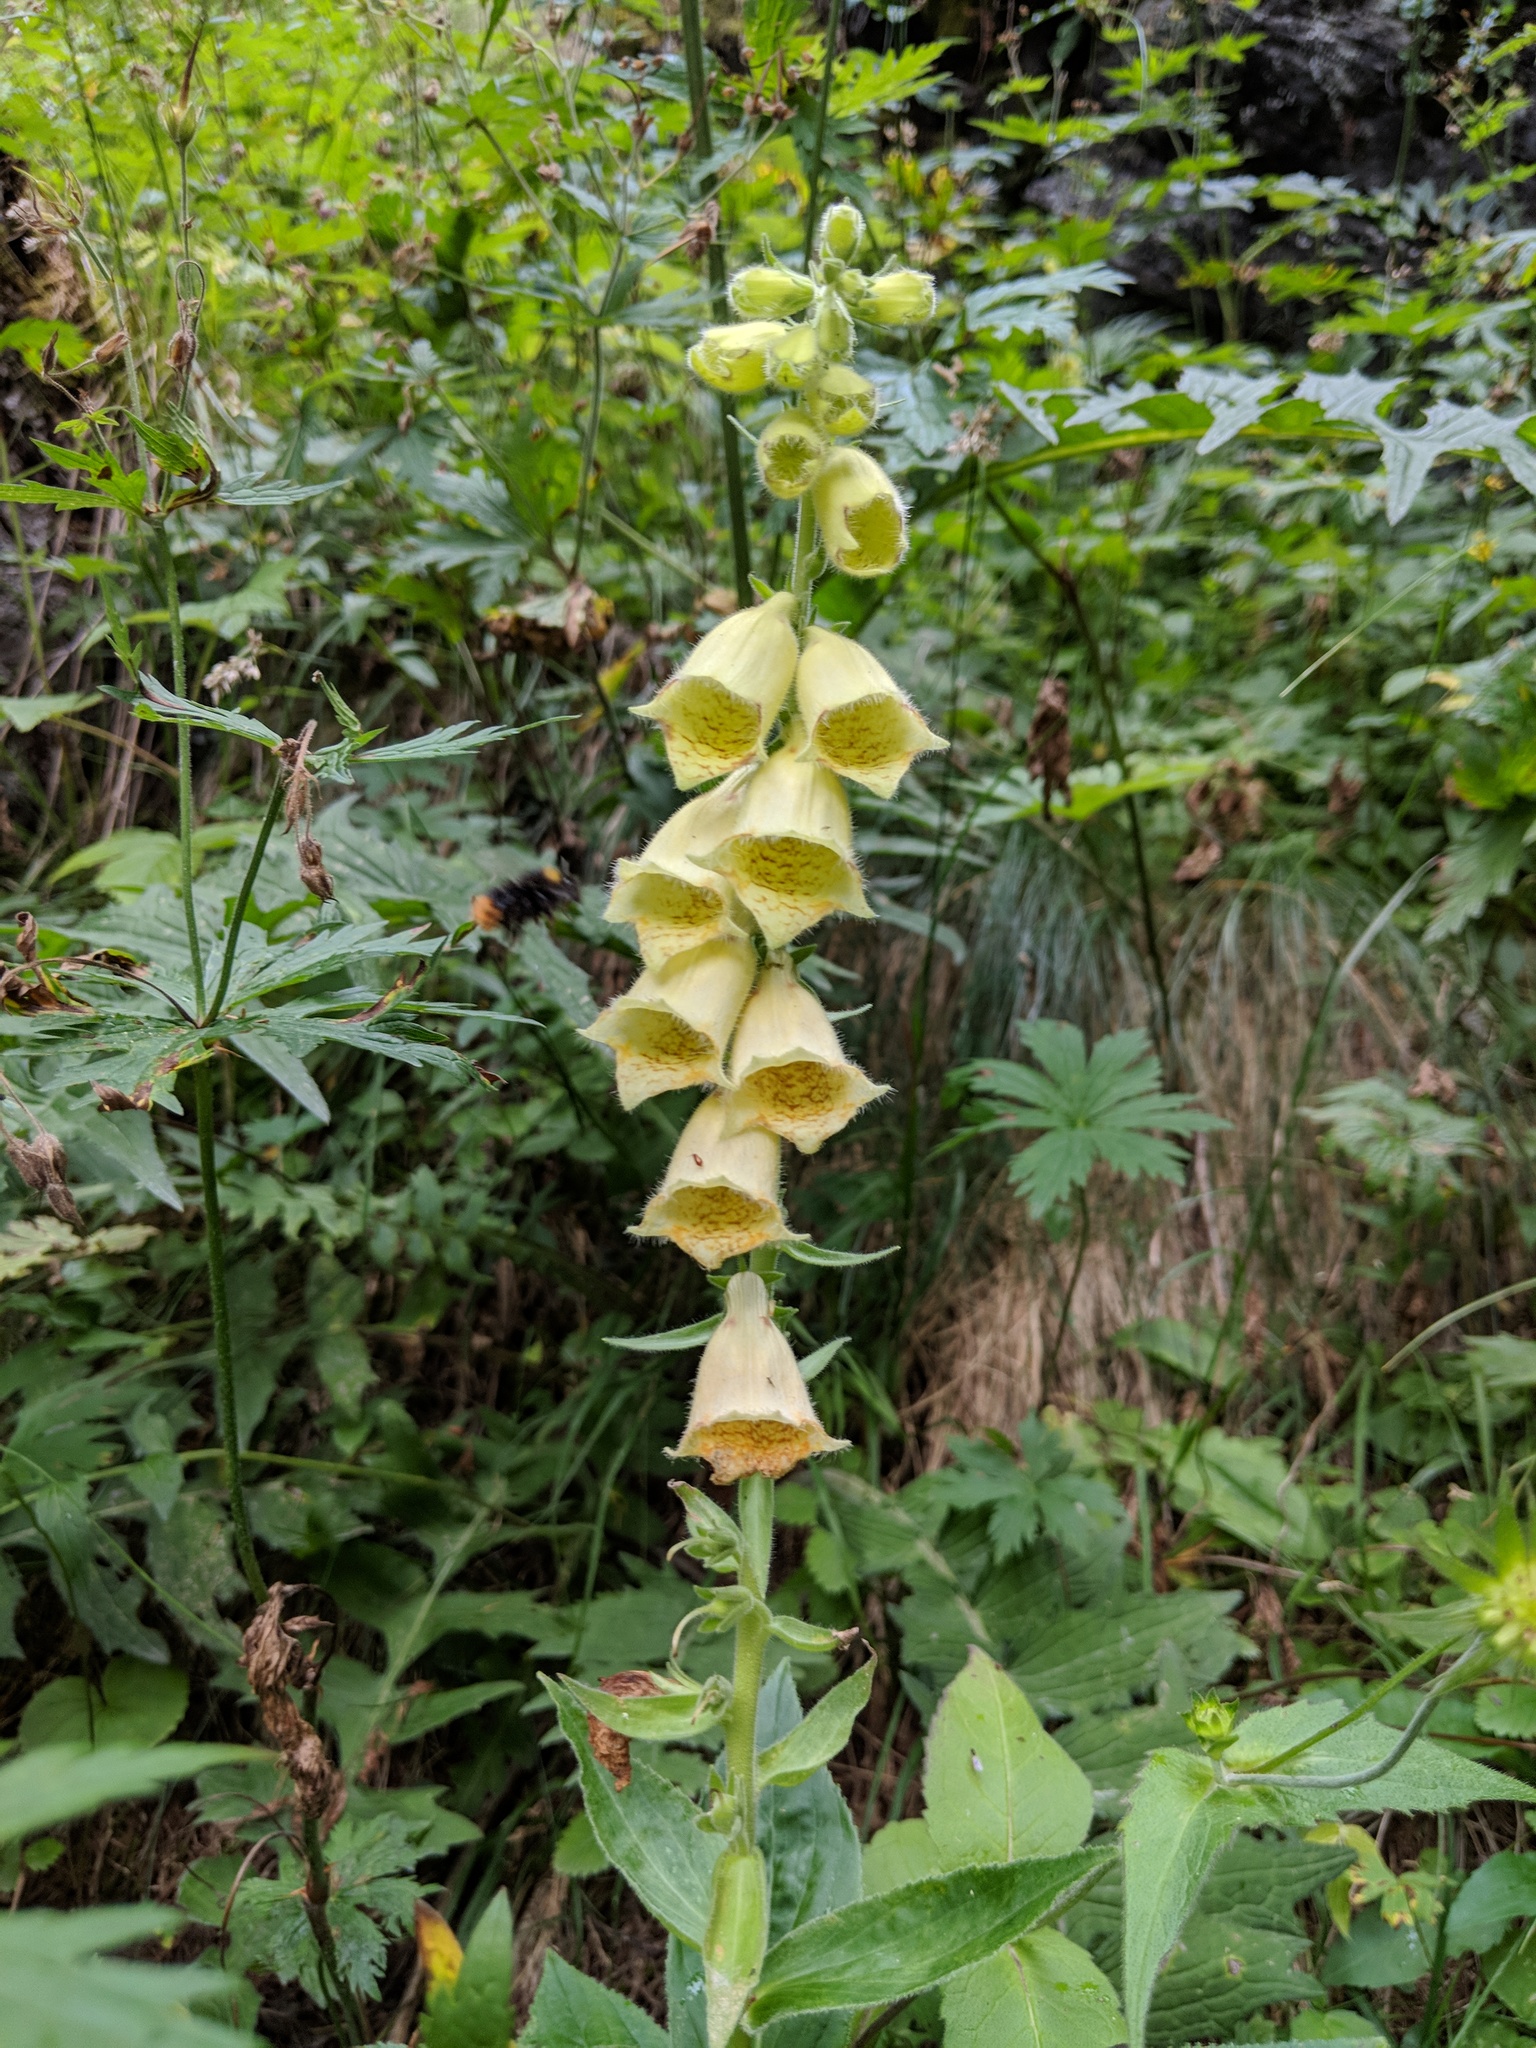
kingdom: Plantae
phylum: Tracheophyta
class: Magnoliopsida
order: Lamiales
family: Plantaginaceae
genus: Digitalis
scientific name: Digitalis grandiflora
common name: Yellow foxglove
